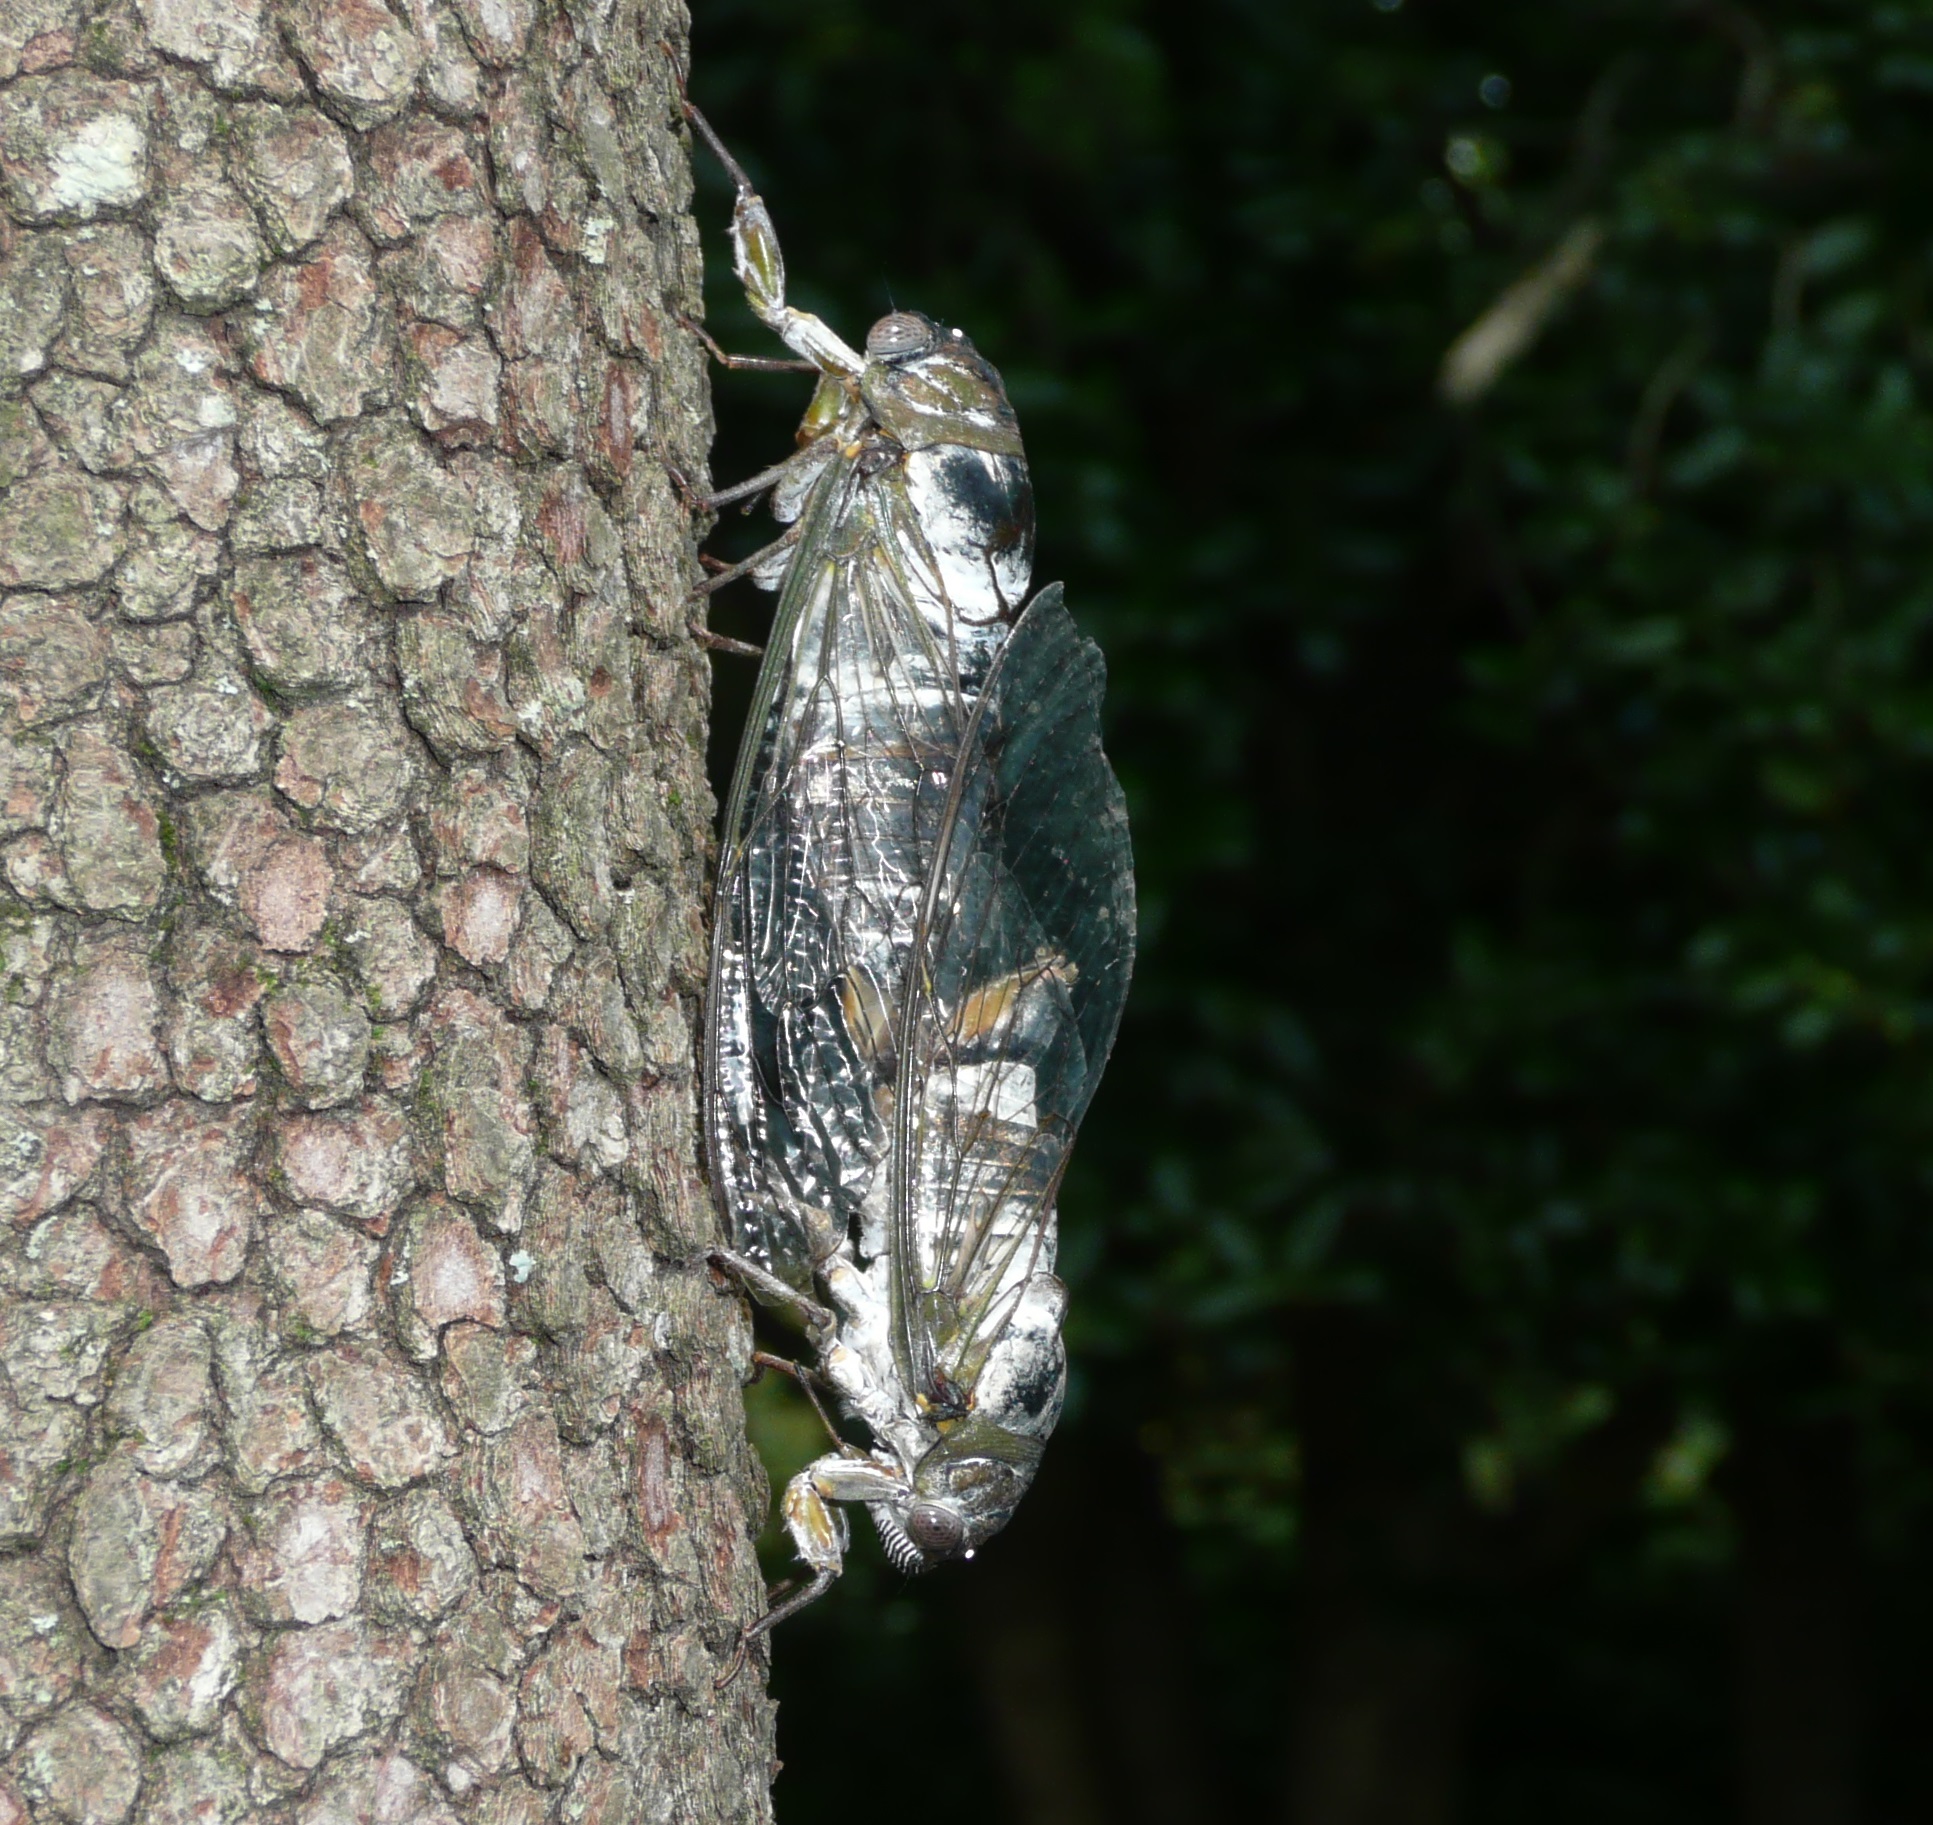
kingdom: Animalia
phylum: Arthropoda
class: Insecta
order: Hemiptera
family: Cicadidae
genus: Diceroprocta
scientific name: Diceroprocta grossa
